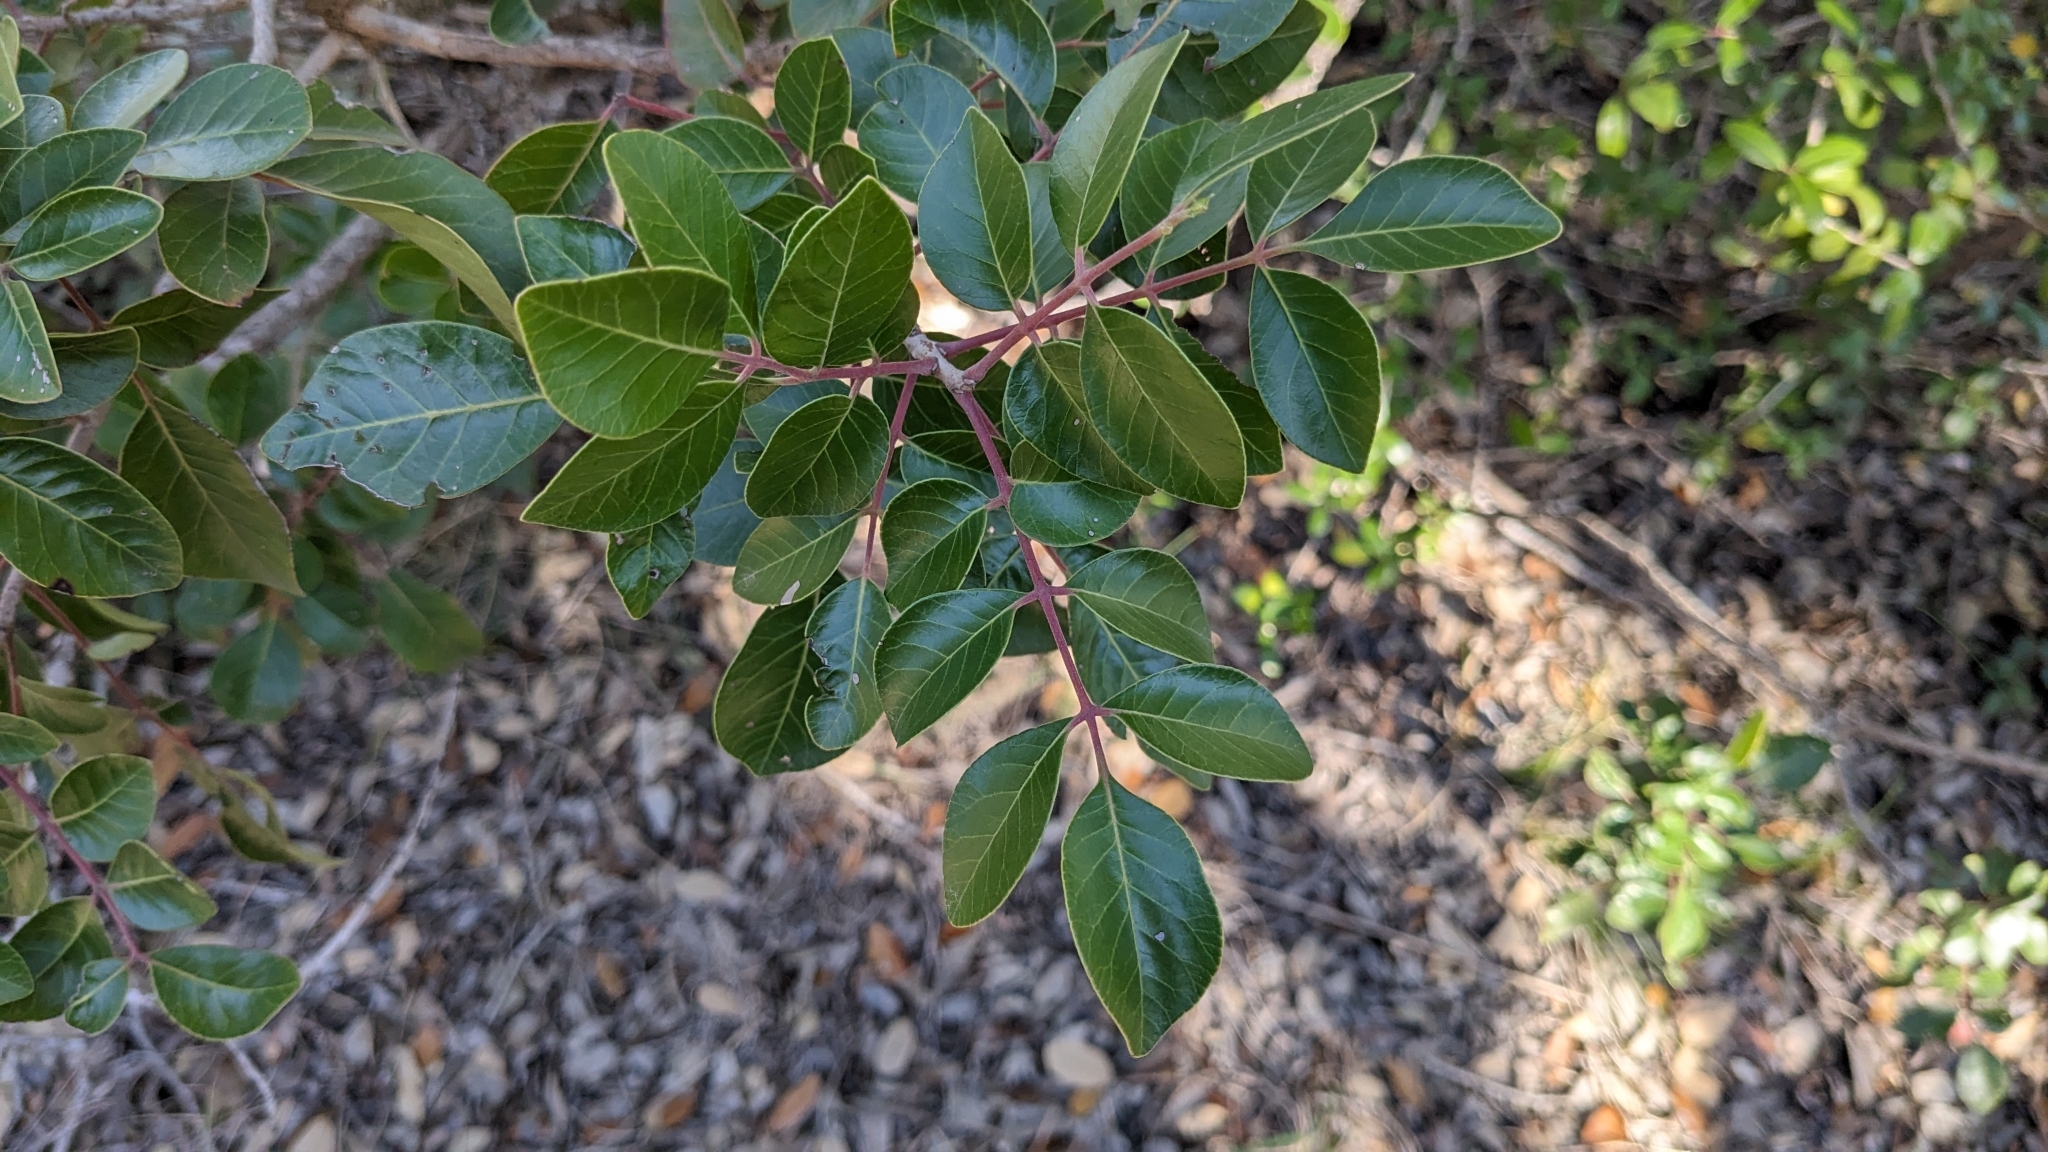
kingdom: Plantae
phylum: Tracheophyta
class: Magnoliopsida
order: Sapindales
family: Anacardiaceae
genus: Rhus
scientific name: Rhus virens
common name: Evergreen sumac
